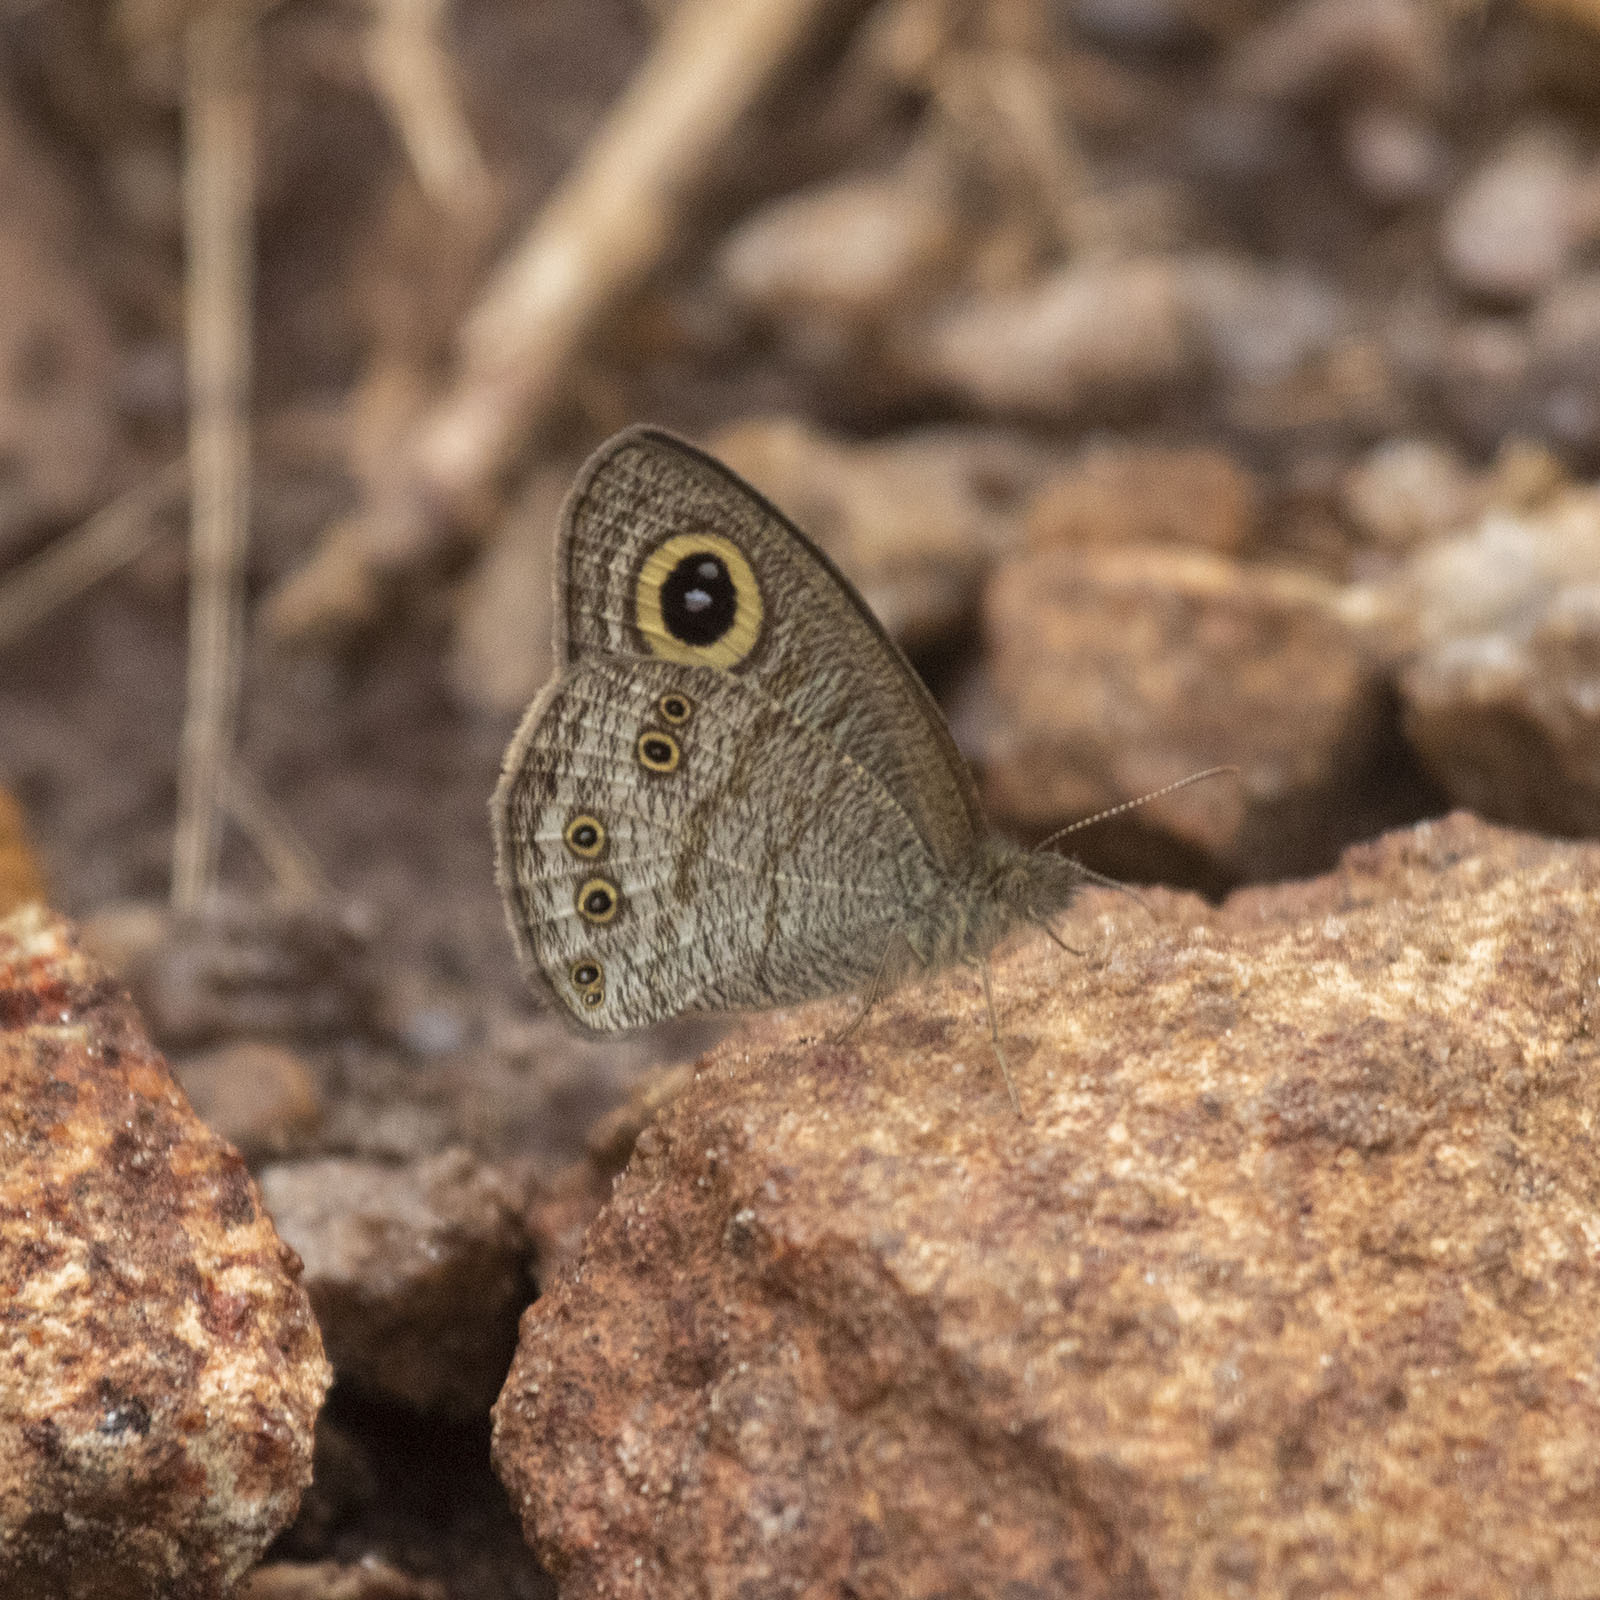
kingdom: Animalia
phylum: Arthropoda
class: Insecta
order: Lepidoptera
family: Nymphalidae
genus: Ypthima
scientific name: Ypthima baldus
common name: Common five-ring
